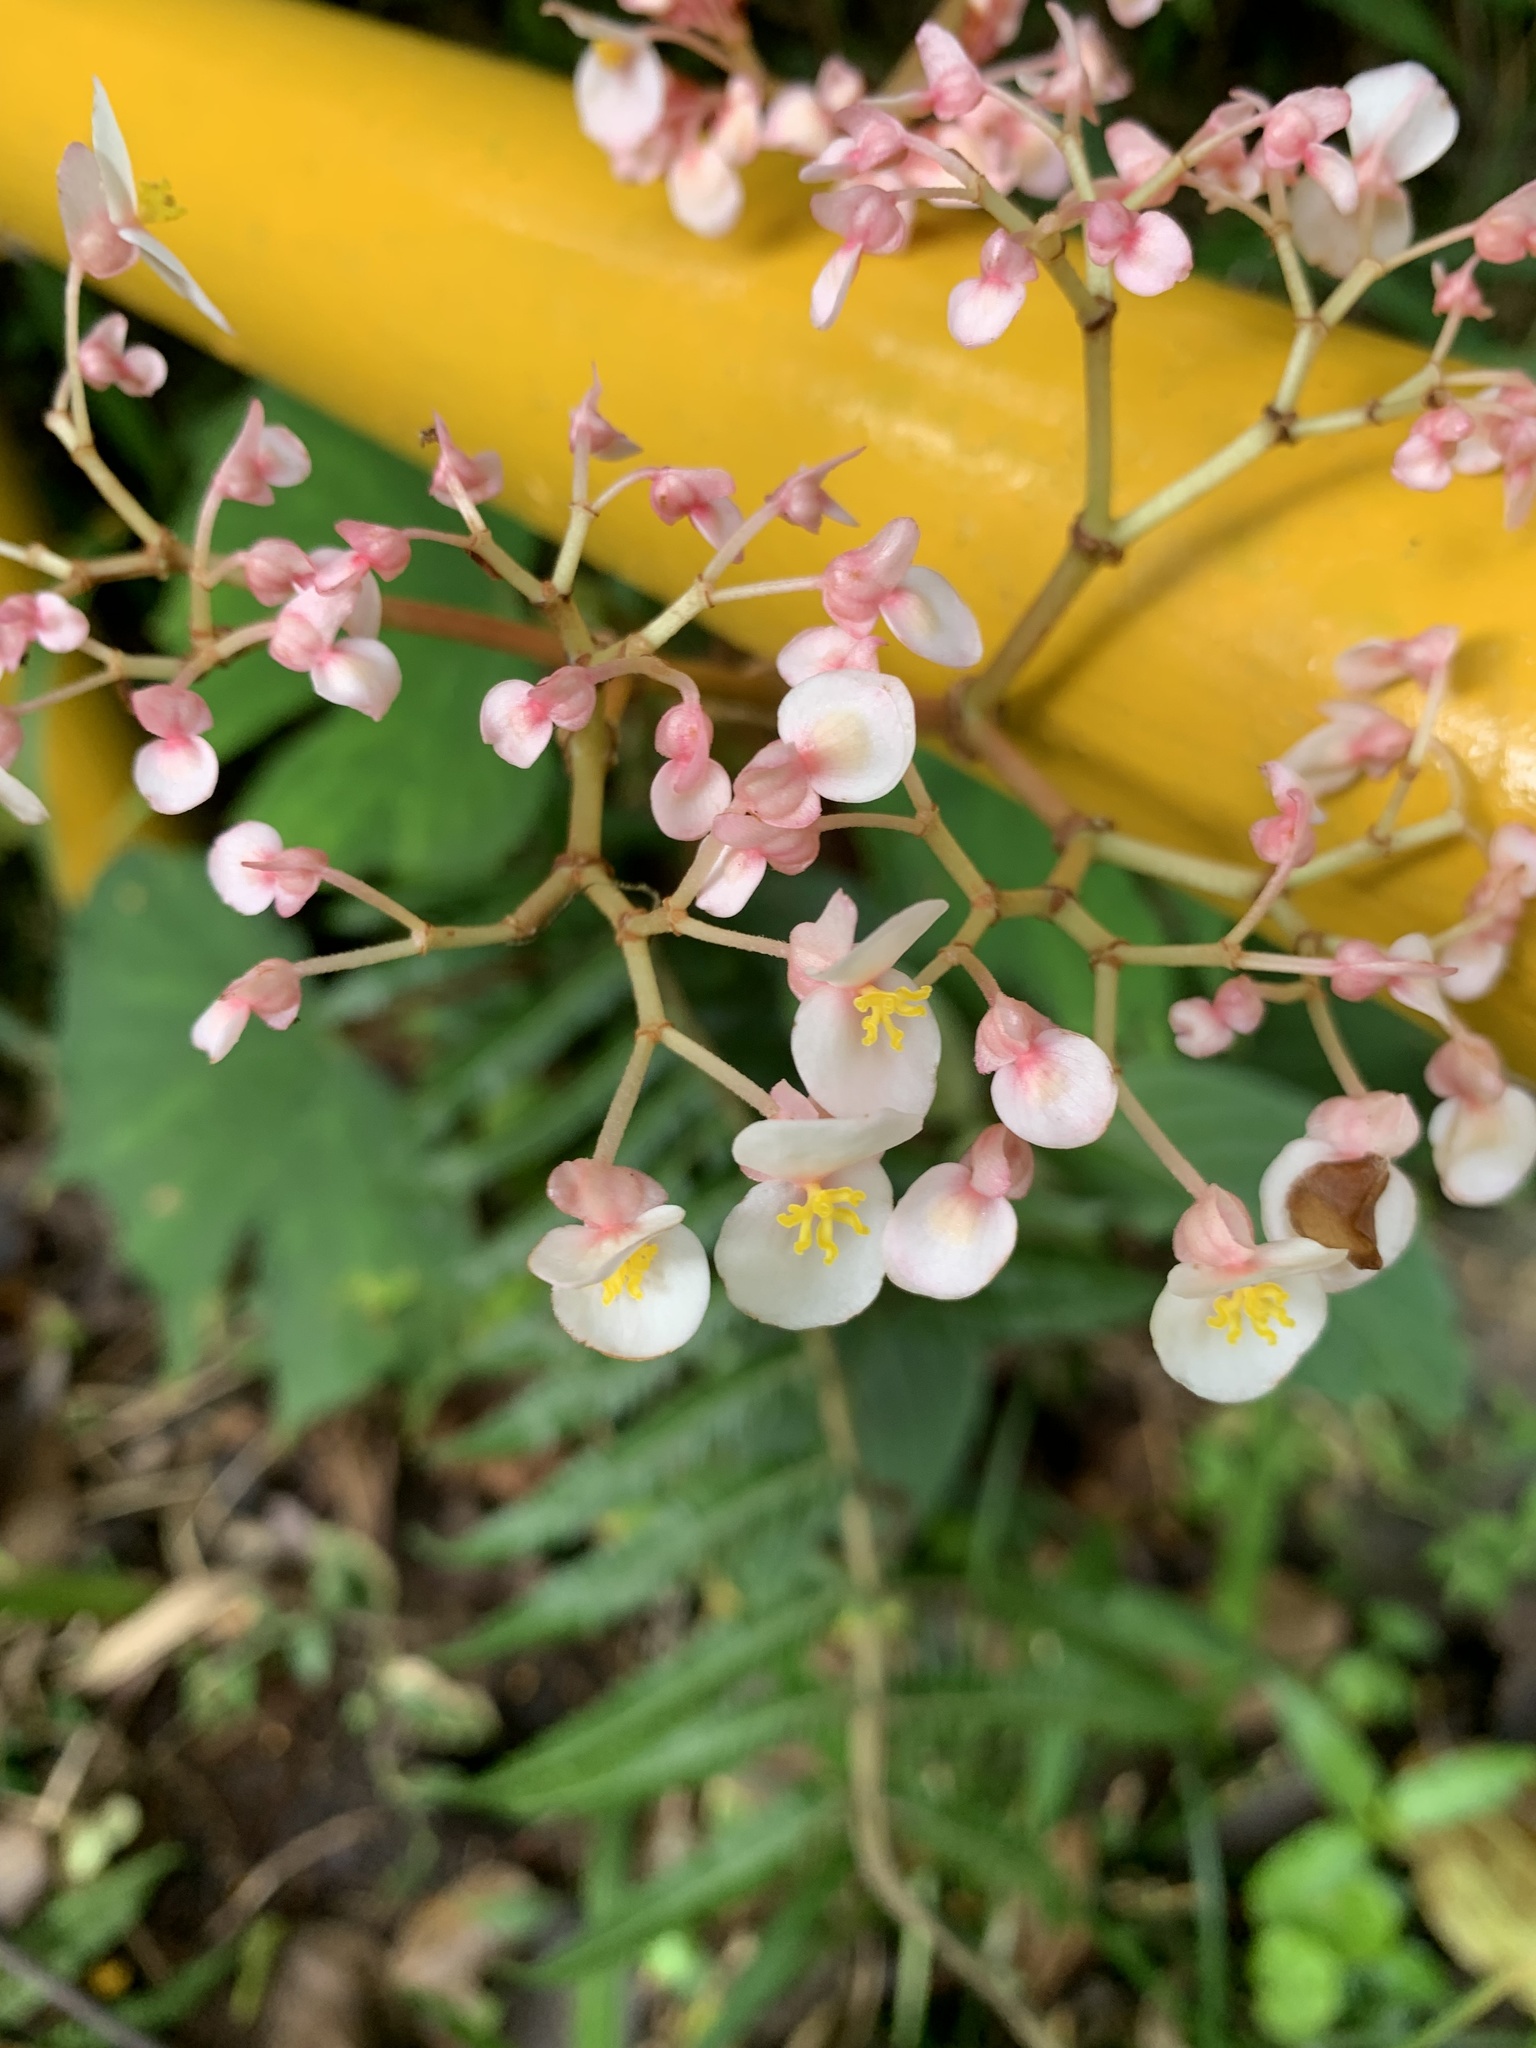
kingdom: Plantae
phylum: Tracheophyta
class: Magnoliopsida
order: Cucurbitales
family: Begoniaceae
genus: Begonia
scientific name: Begonia broussonetiifolia
